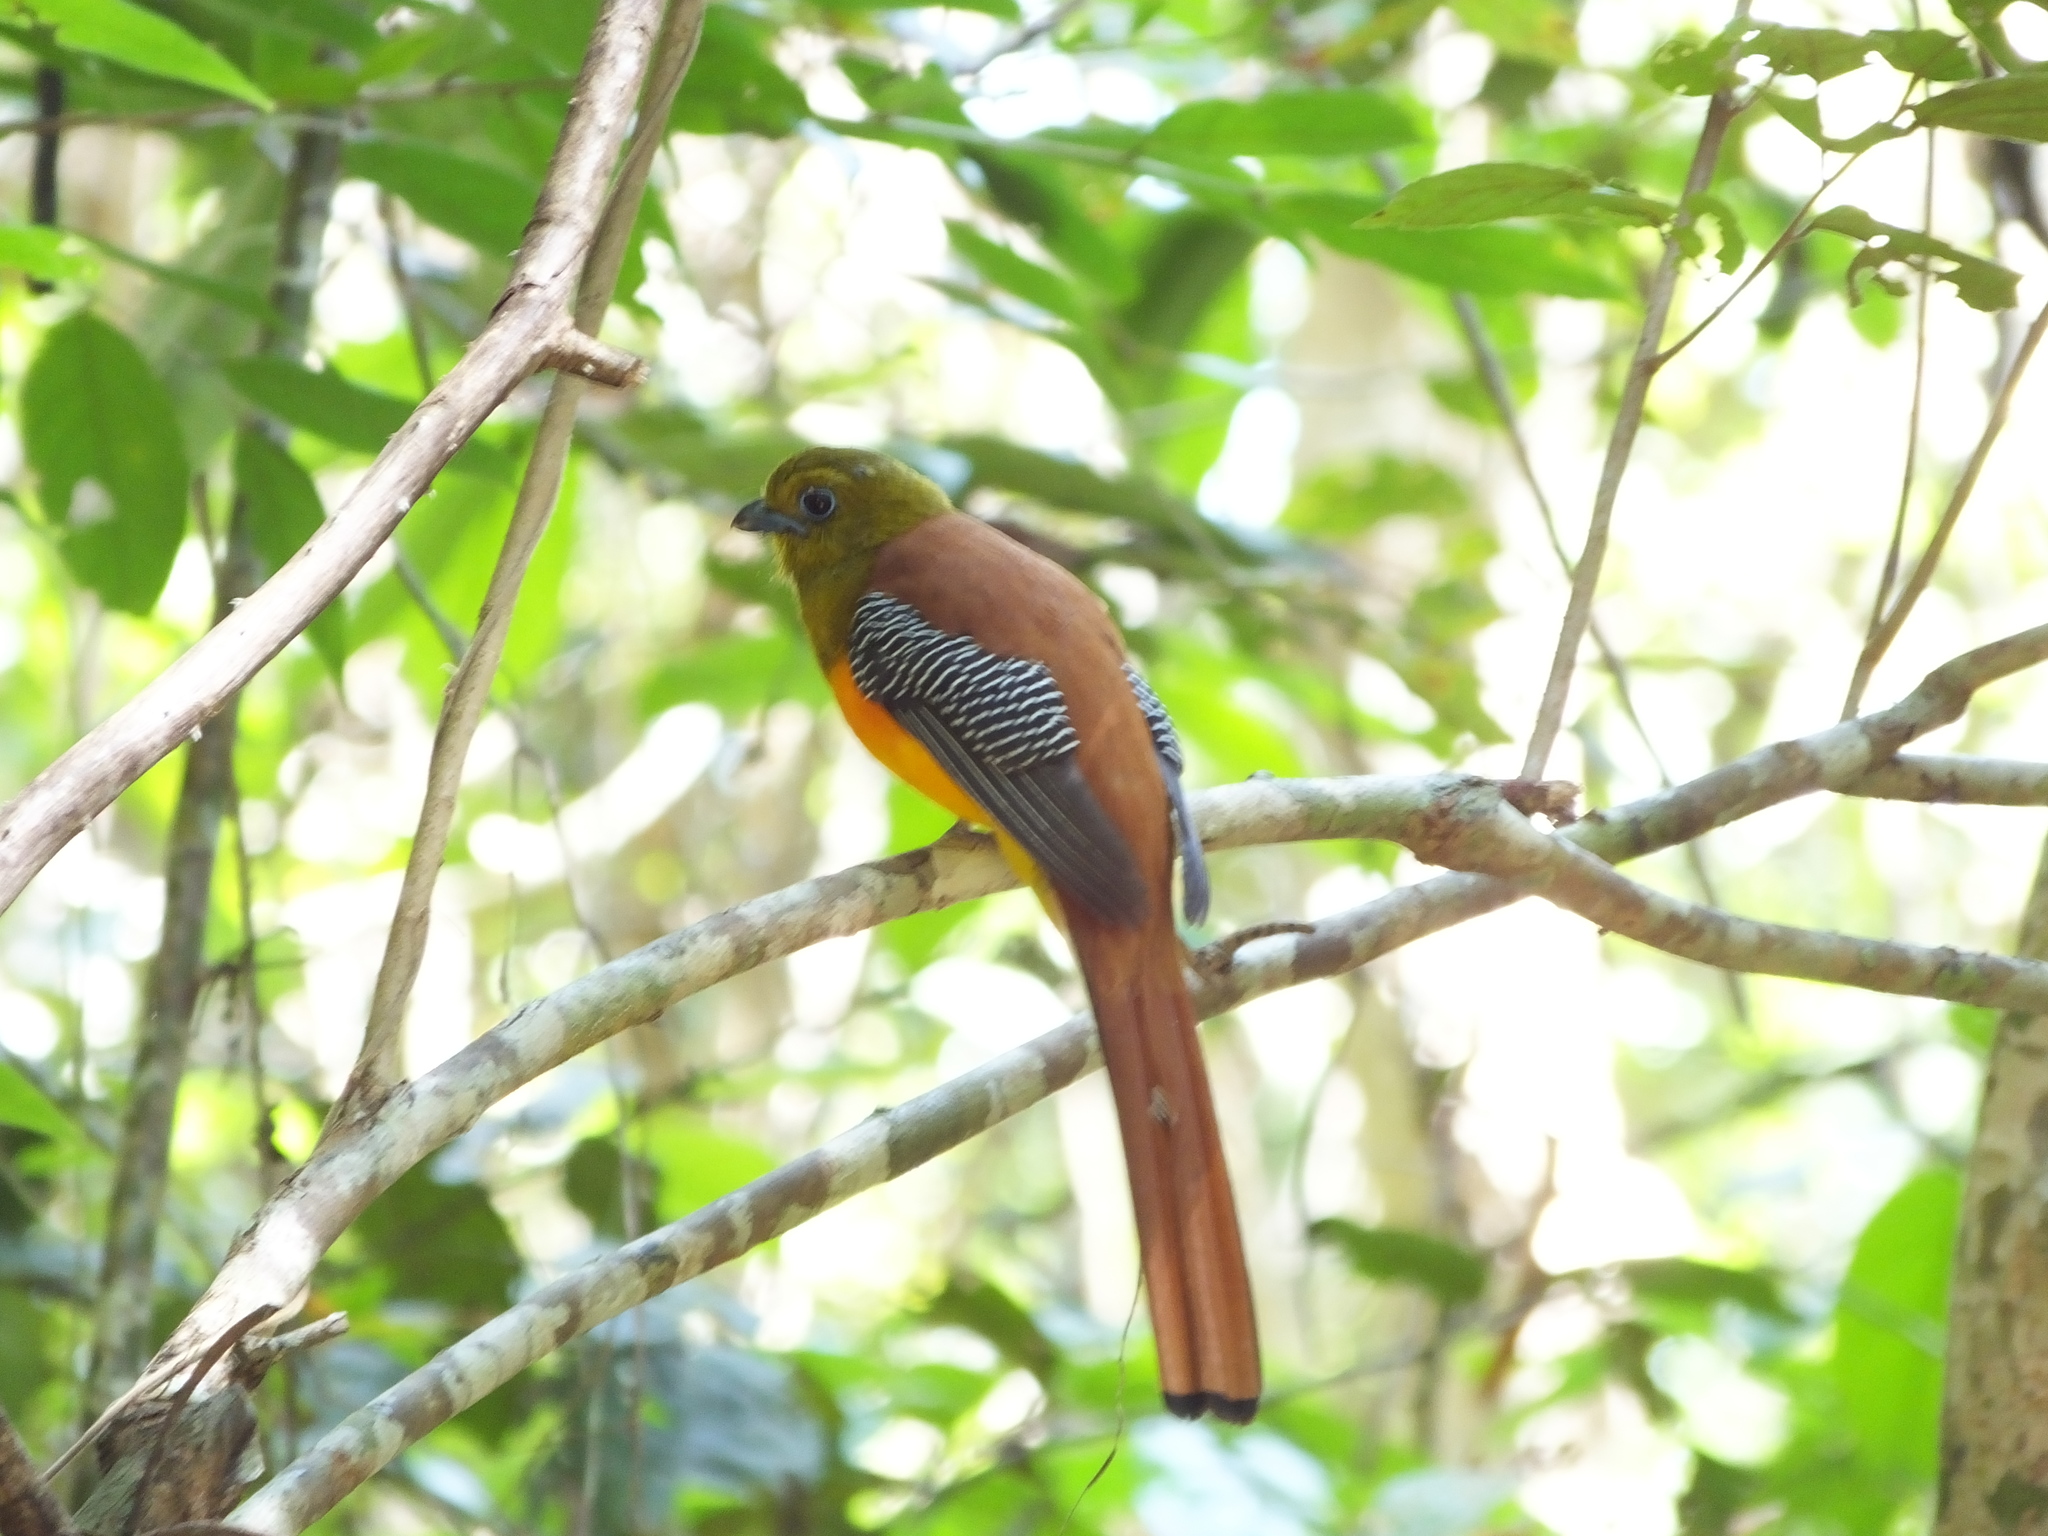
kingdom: Animalia
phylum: Chordata
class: Aves
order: Trogoniformes
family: Trogonidae
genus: Harpactes
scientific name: Harpactes oreskios
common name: Orange-breasted trogon
